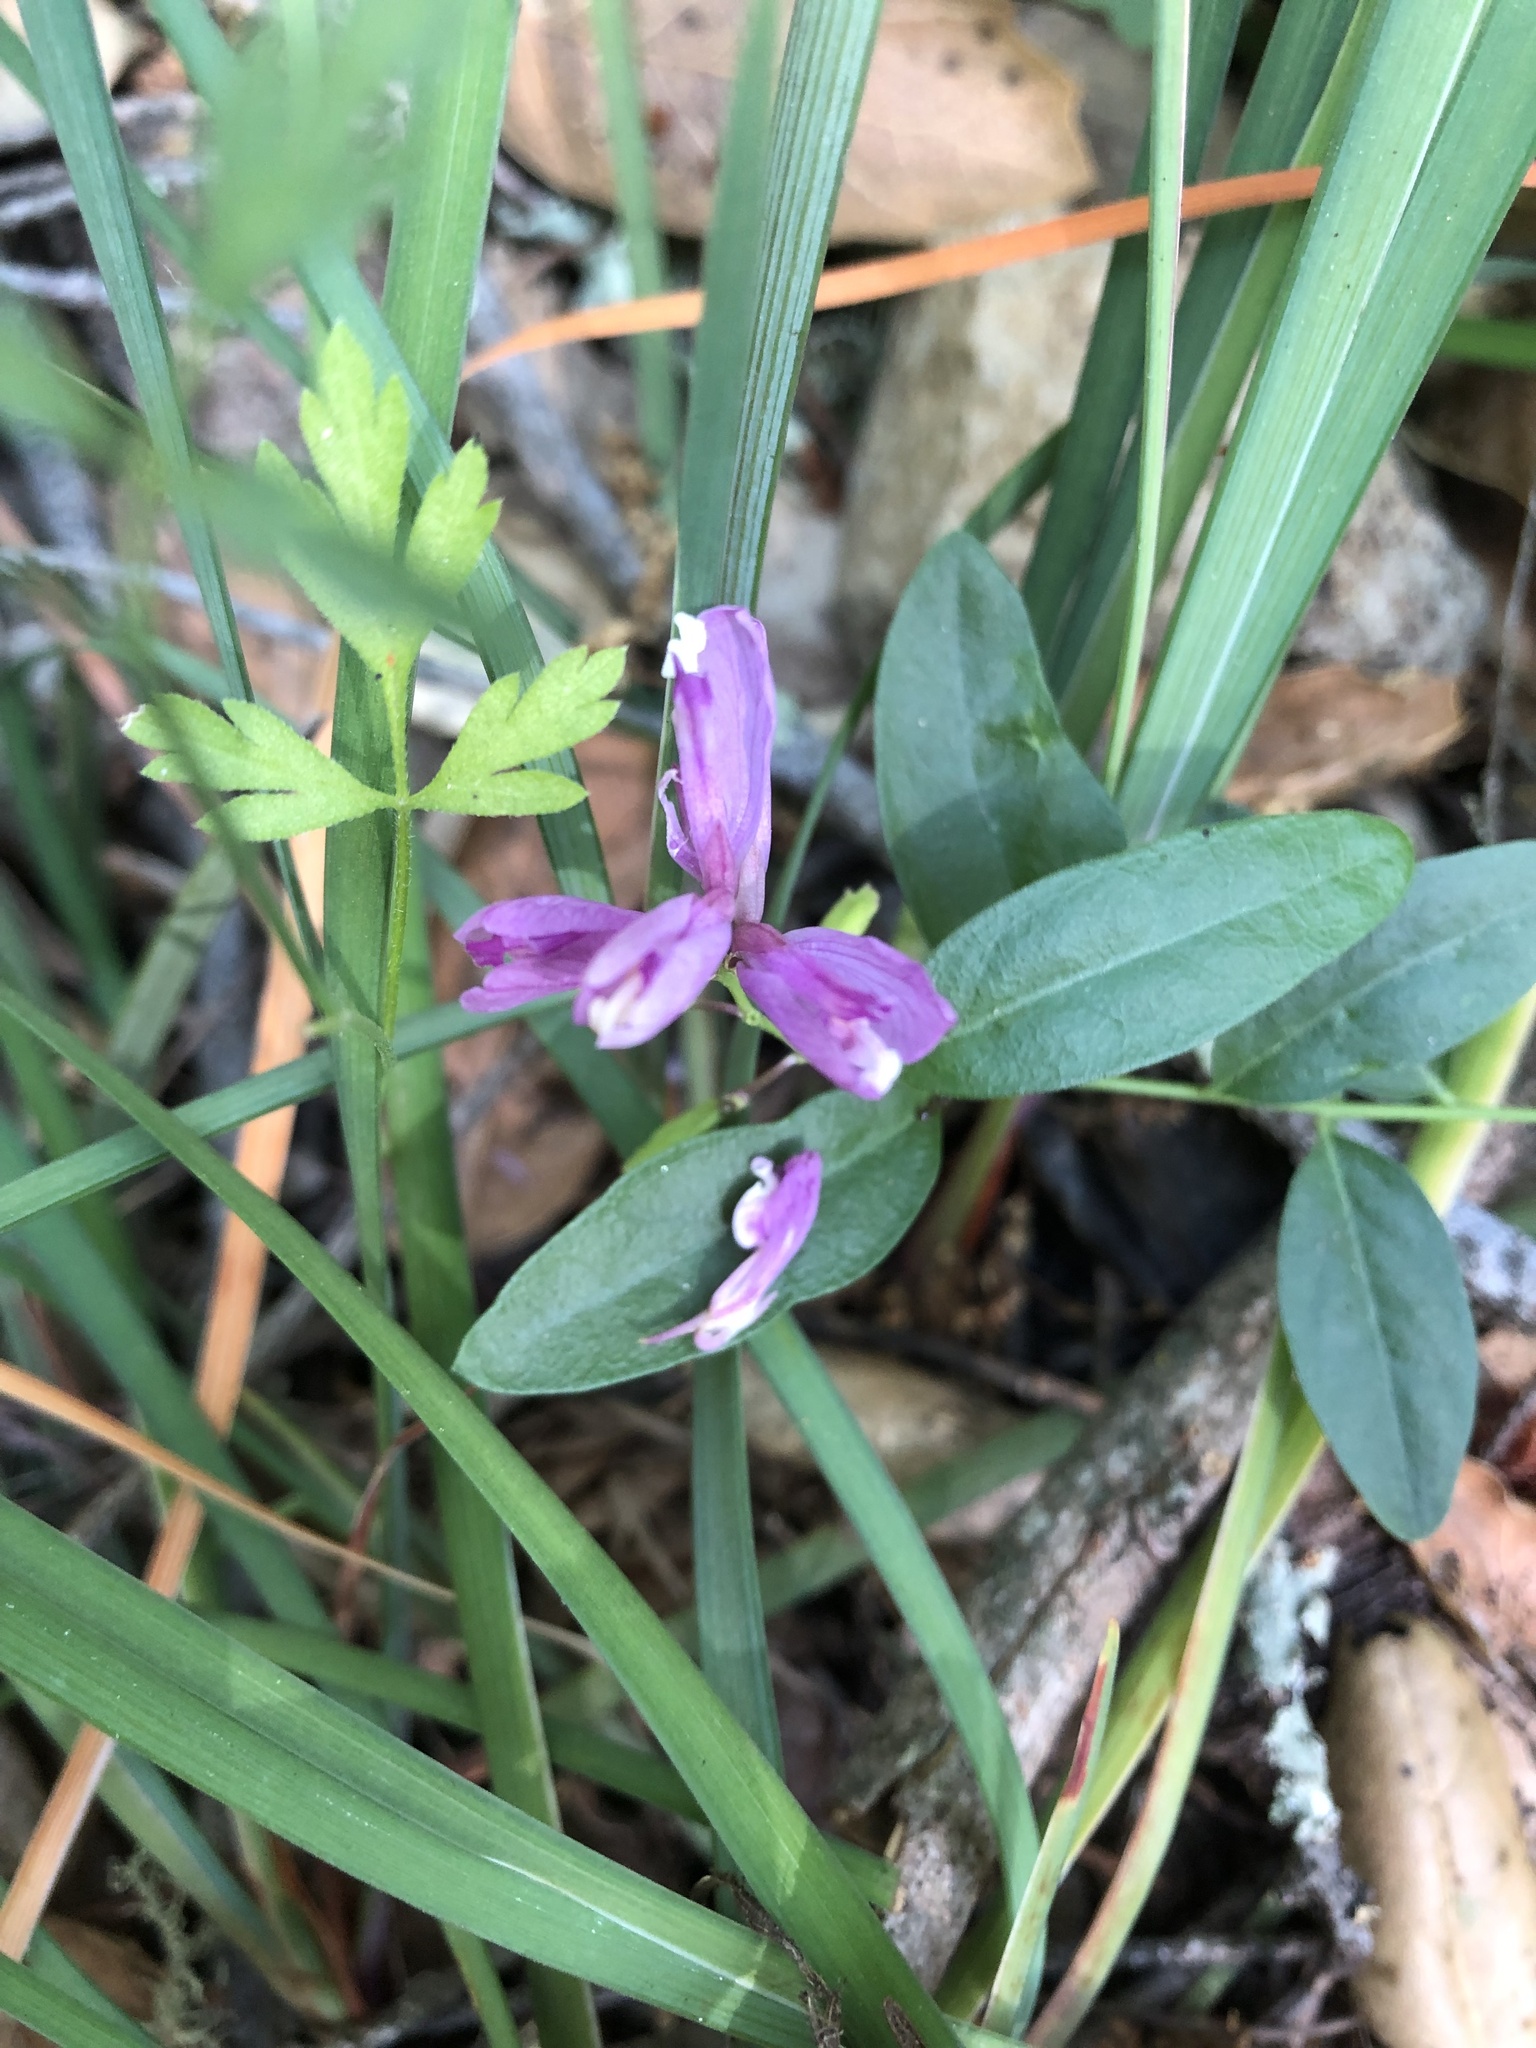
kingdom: Plantae
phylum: Tracheophyta
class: Magnoliopsida
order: Fabales
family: Polygalaceae
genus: Rhinotropis
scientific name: Rhinotropis californica
